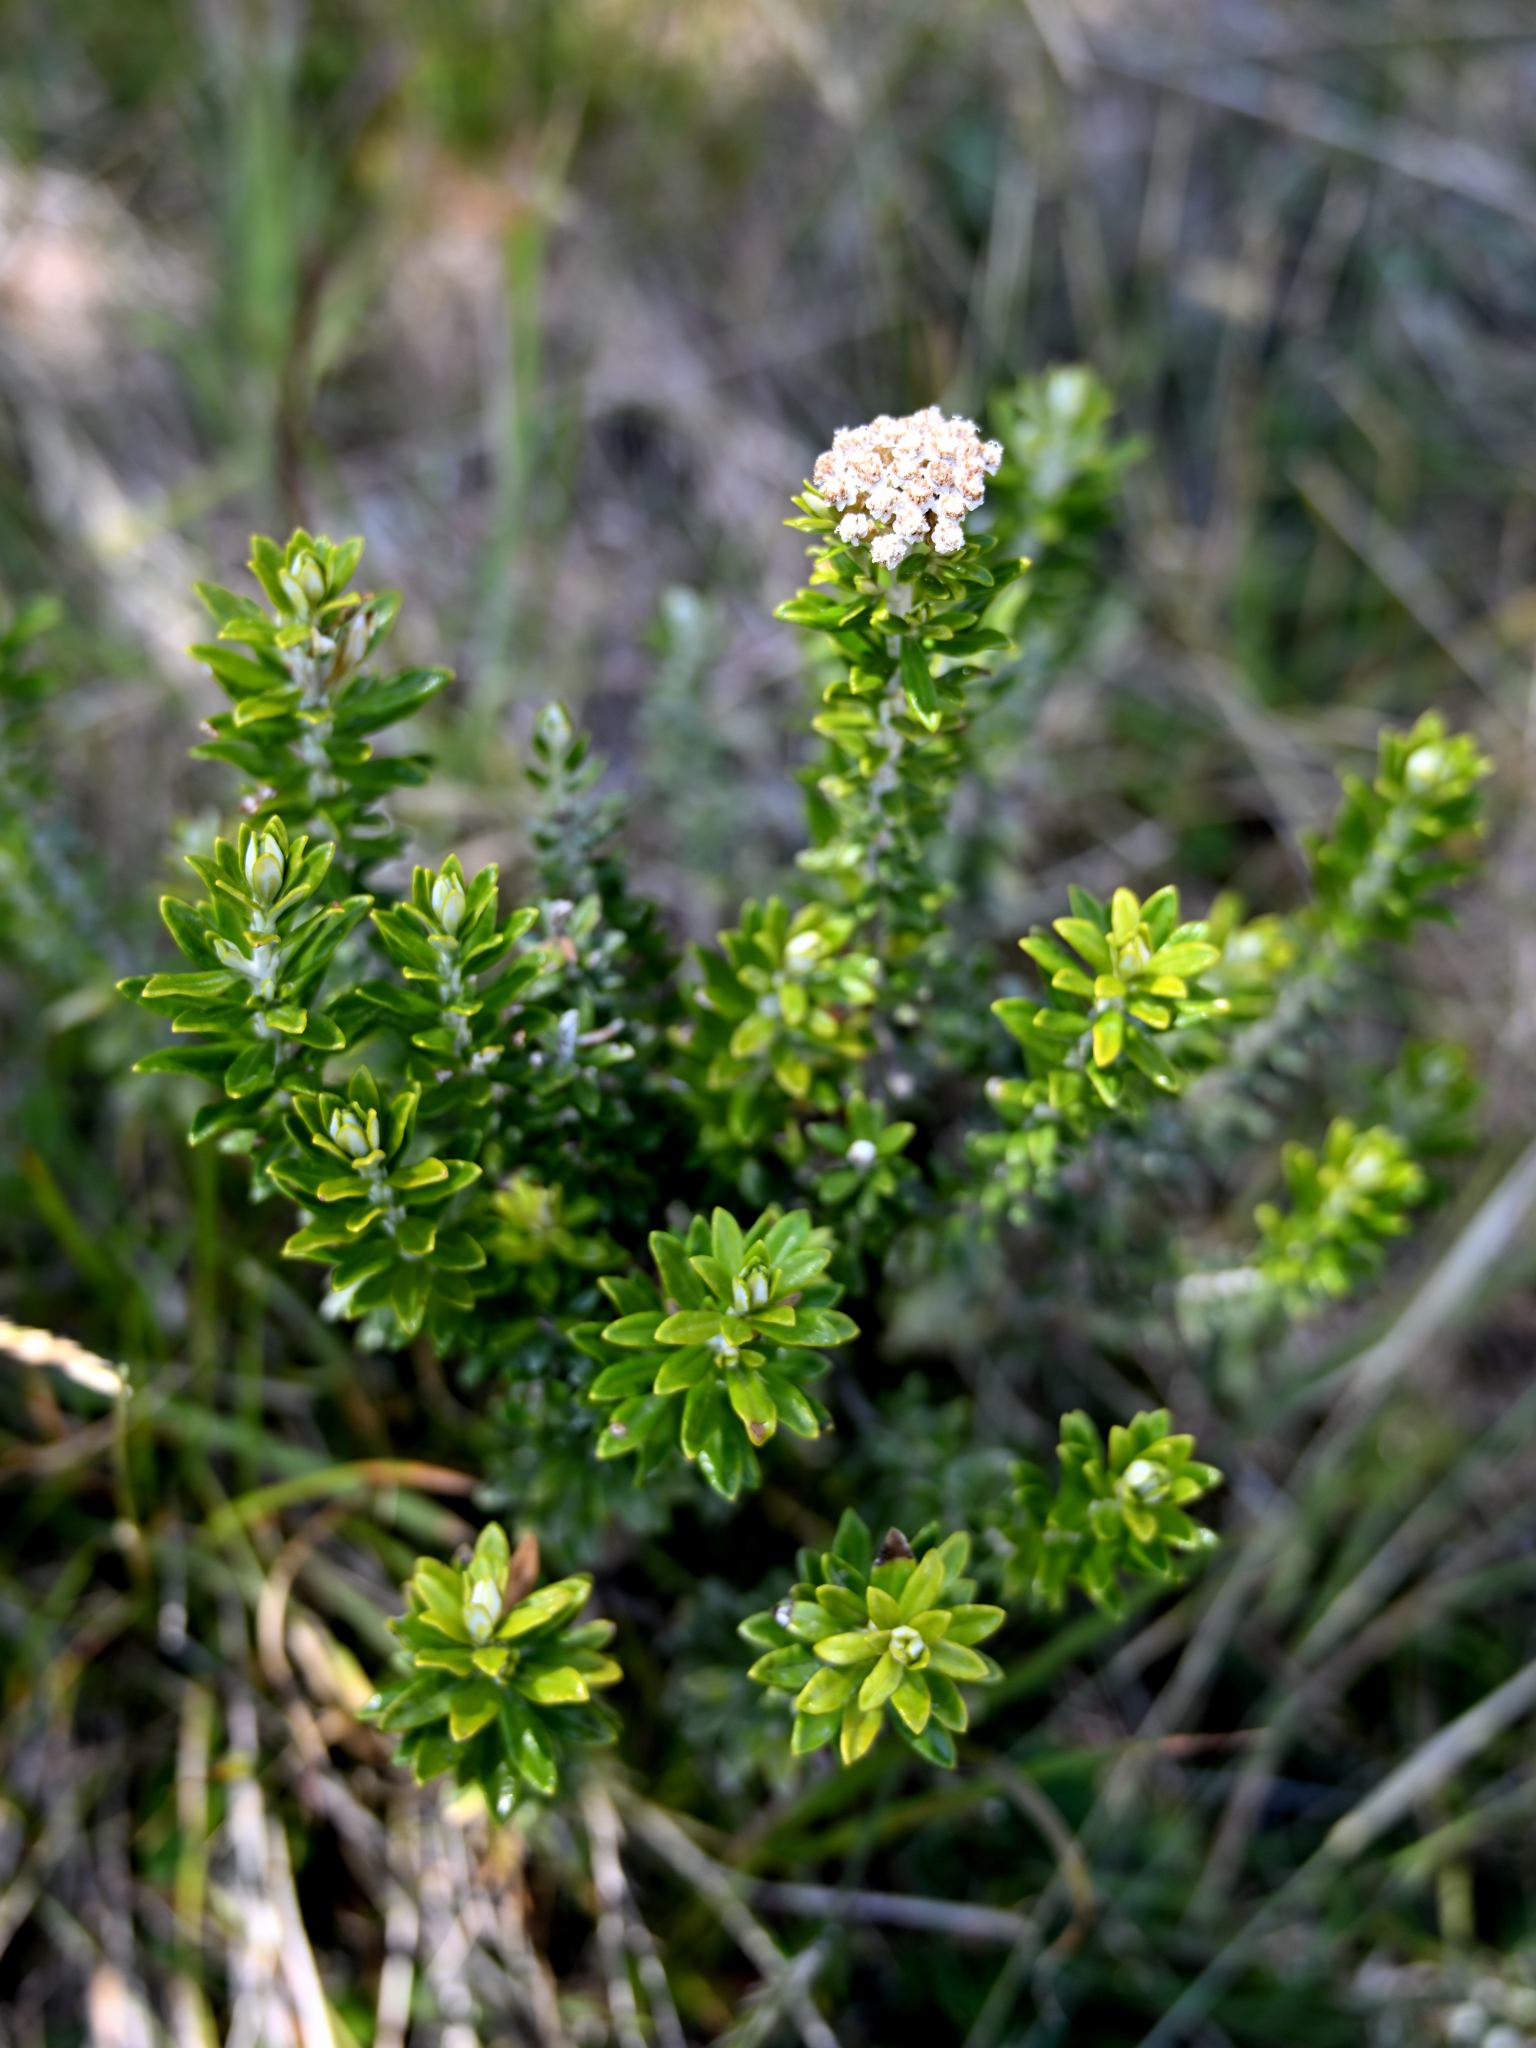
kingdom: Plantae
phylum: Tracheophyta
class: Magnoliopsida
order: Asterales
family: Asteraceae
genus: Ozothamnus
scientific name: Ozothamnus leptophyllus
